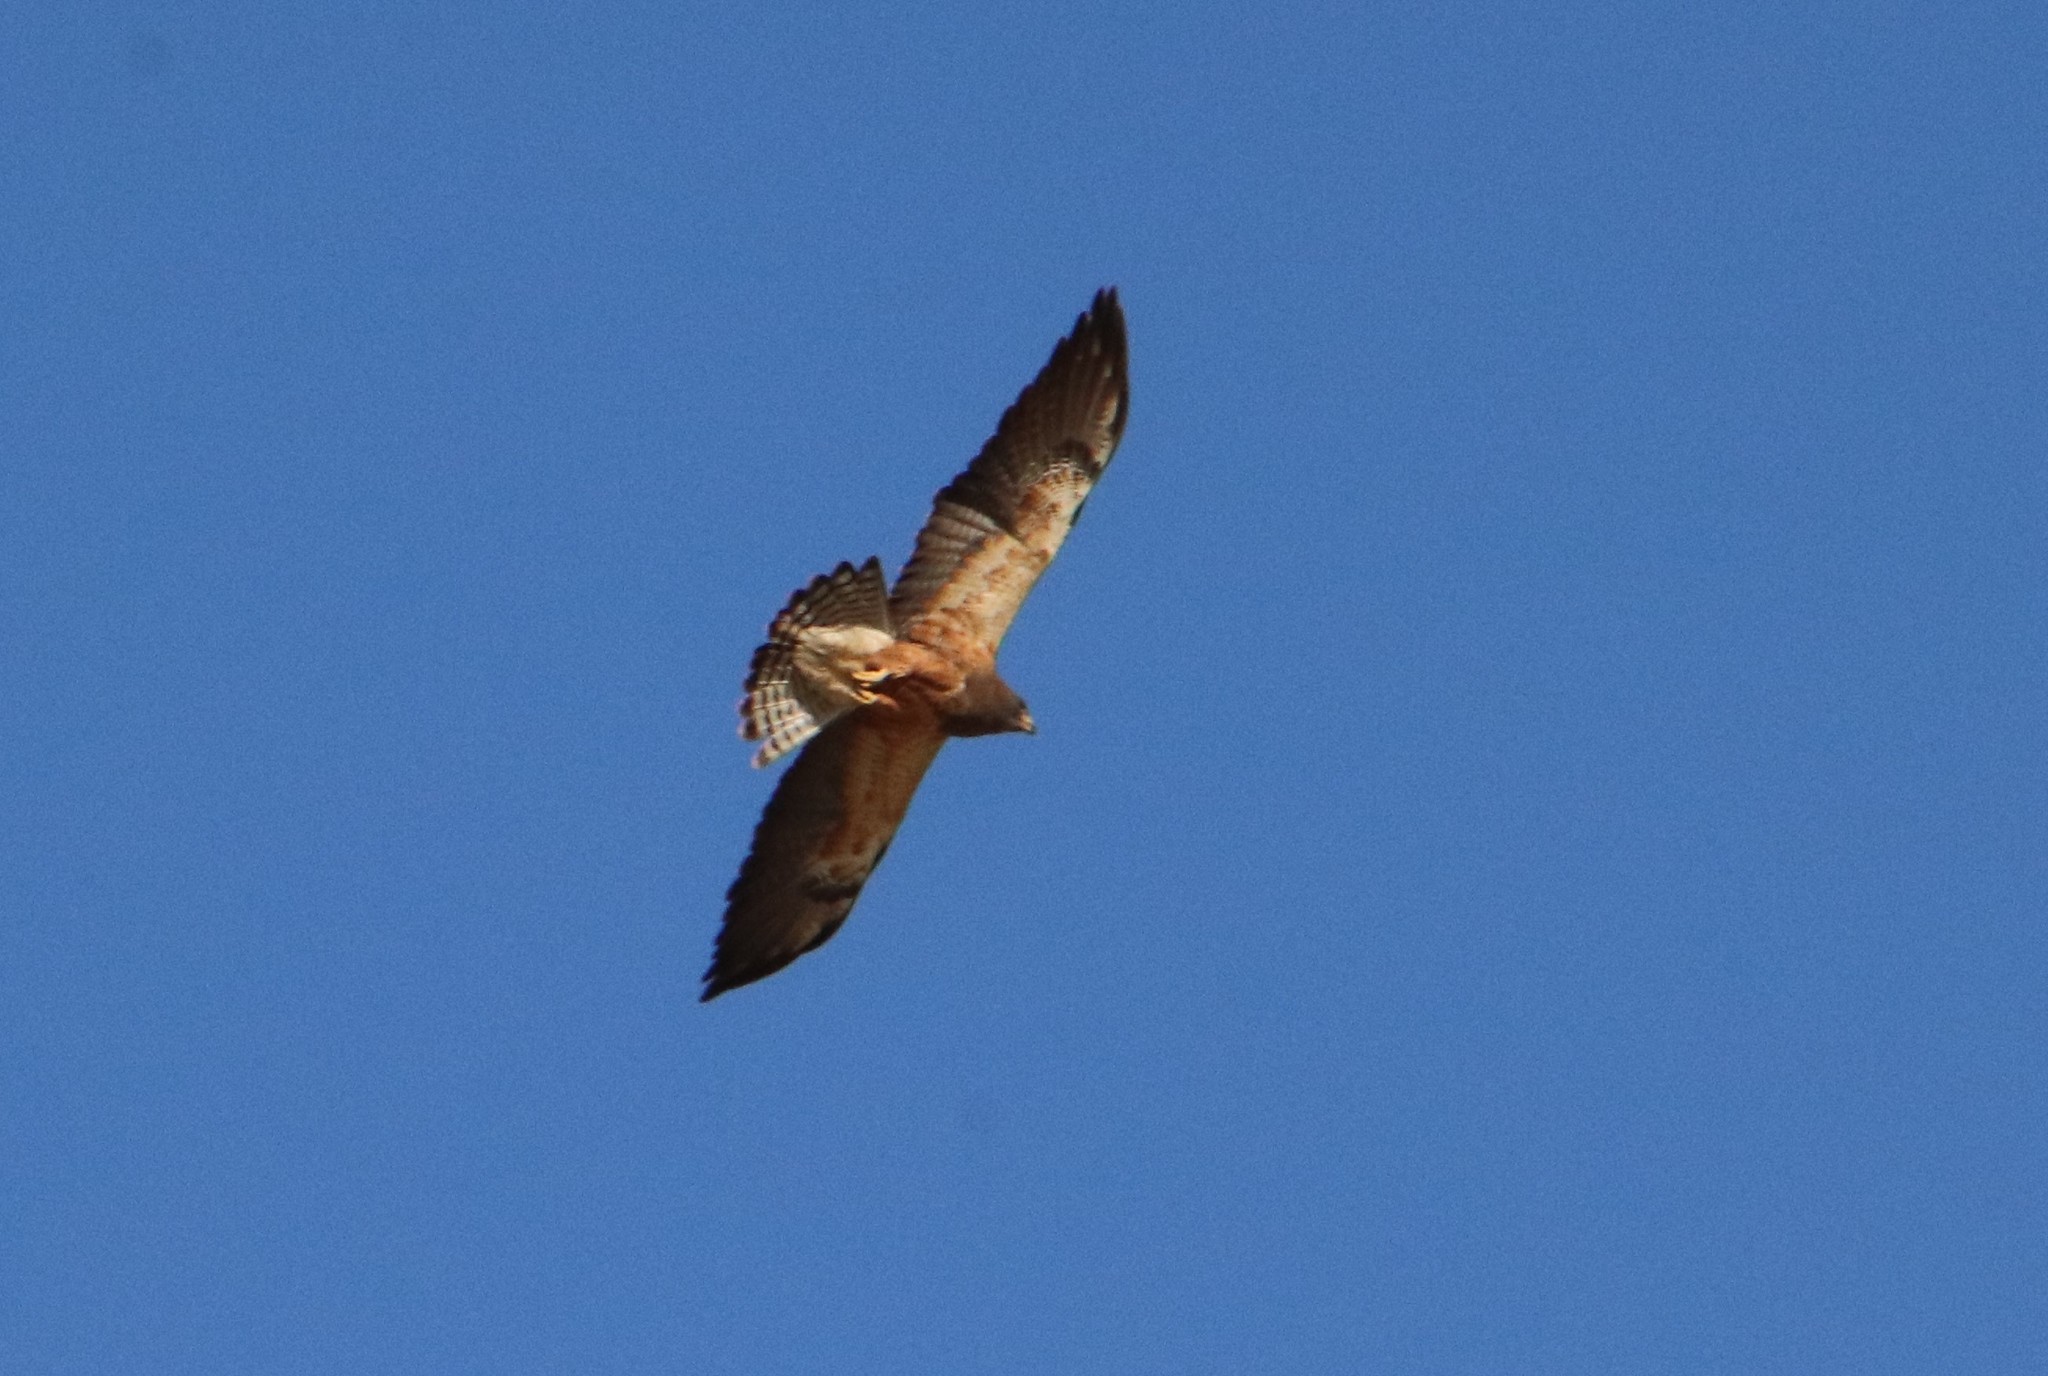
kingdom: Animalia
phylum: Chordata
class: Aves
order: Accipitriformes
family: Accipitridae
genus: Buteo
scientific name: Buteo swainsoni
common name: Swainson's hawk
